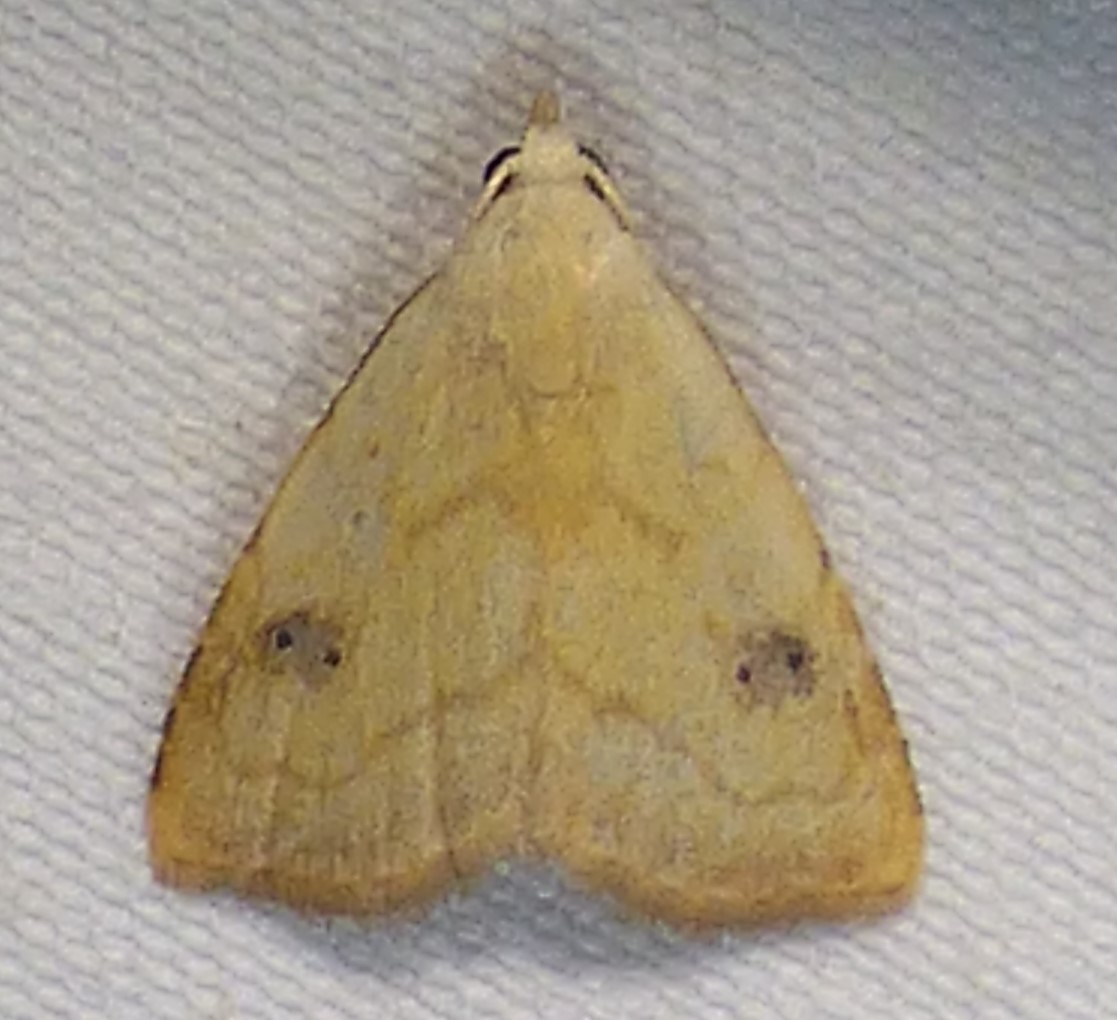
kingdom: Animalia
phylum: Arthropoda
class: Insecta
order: Lepidoptera
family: Erebidae
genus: Rivula
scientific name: Rivula propinqualis
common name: Spotted grass moth
